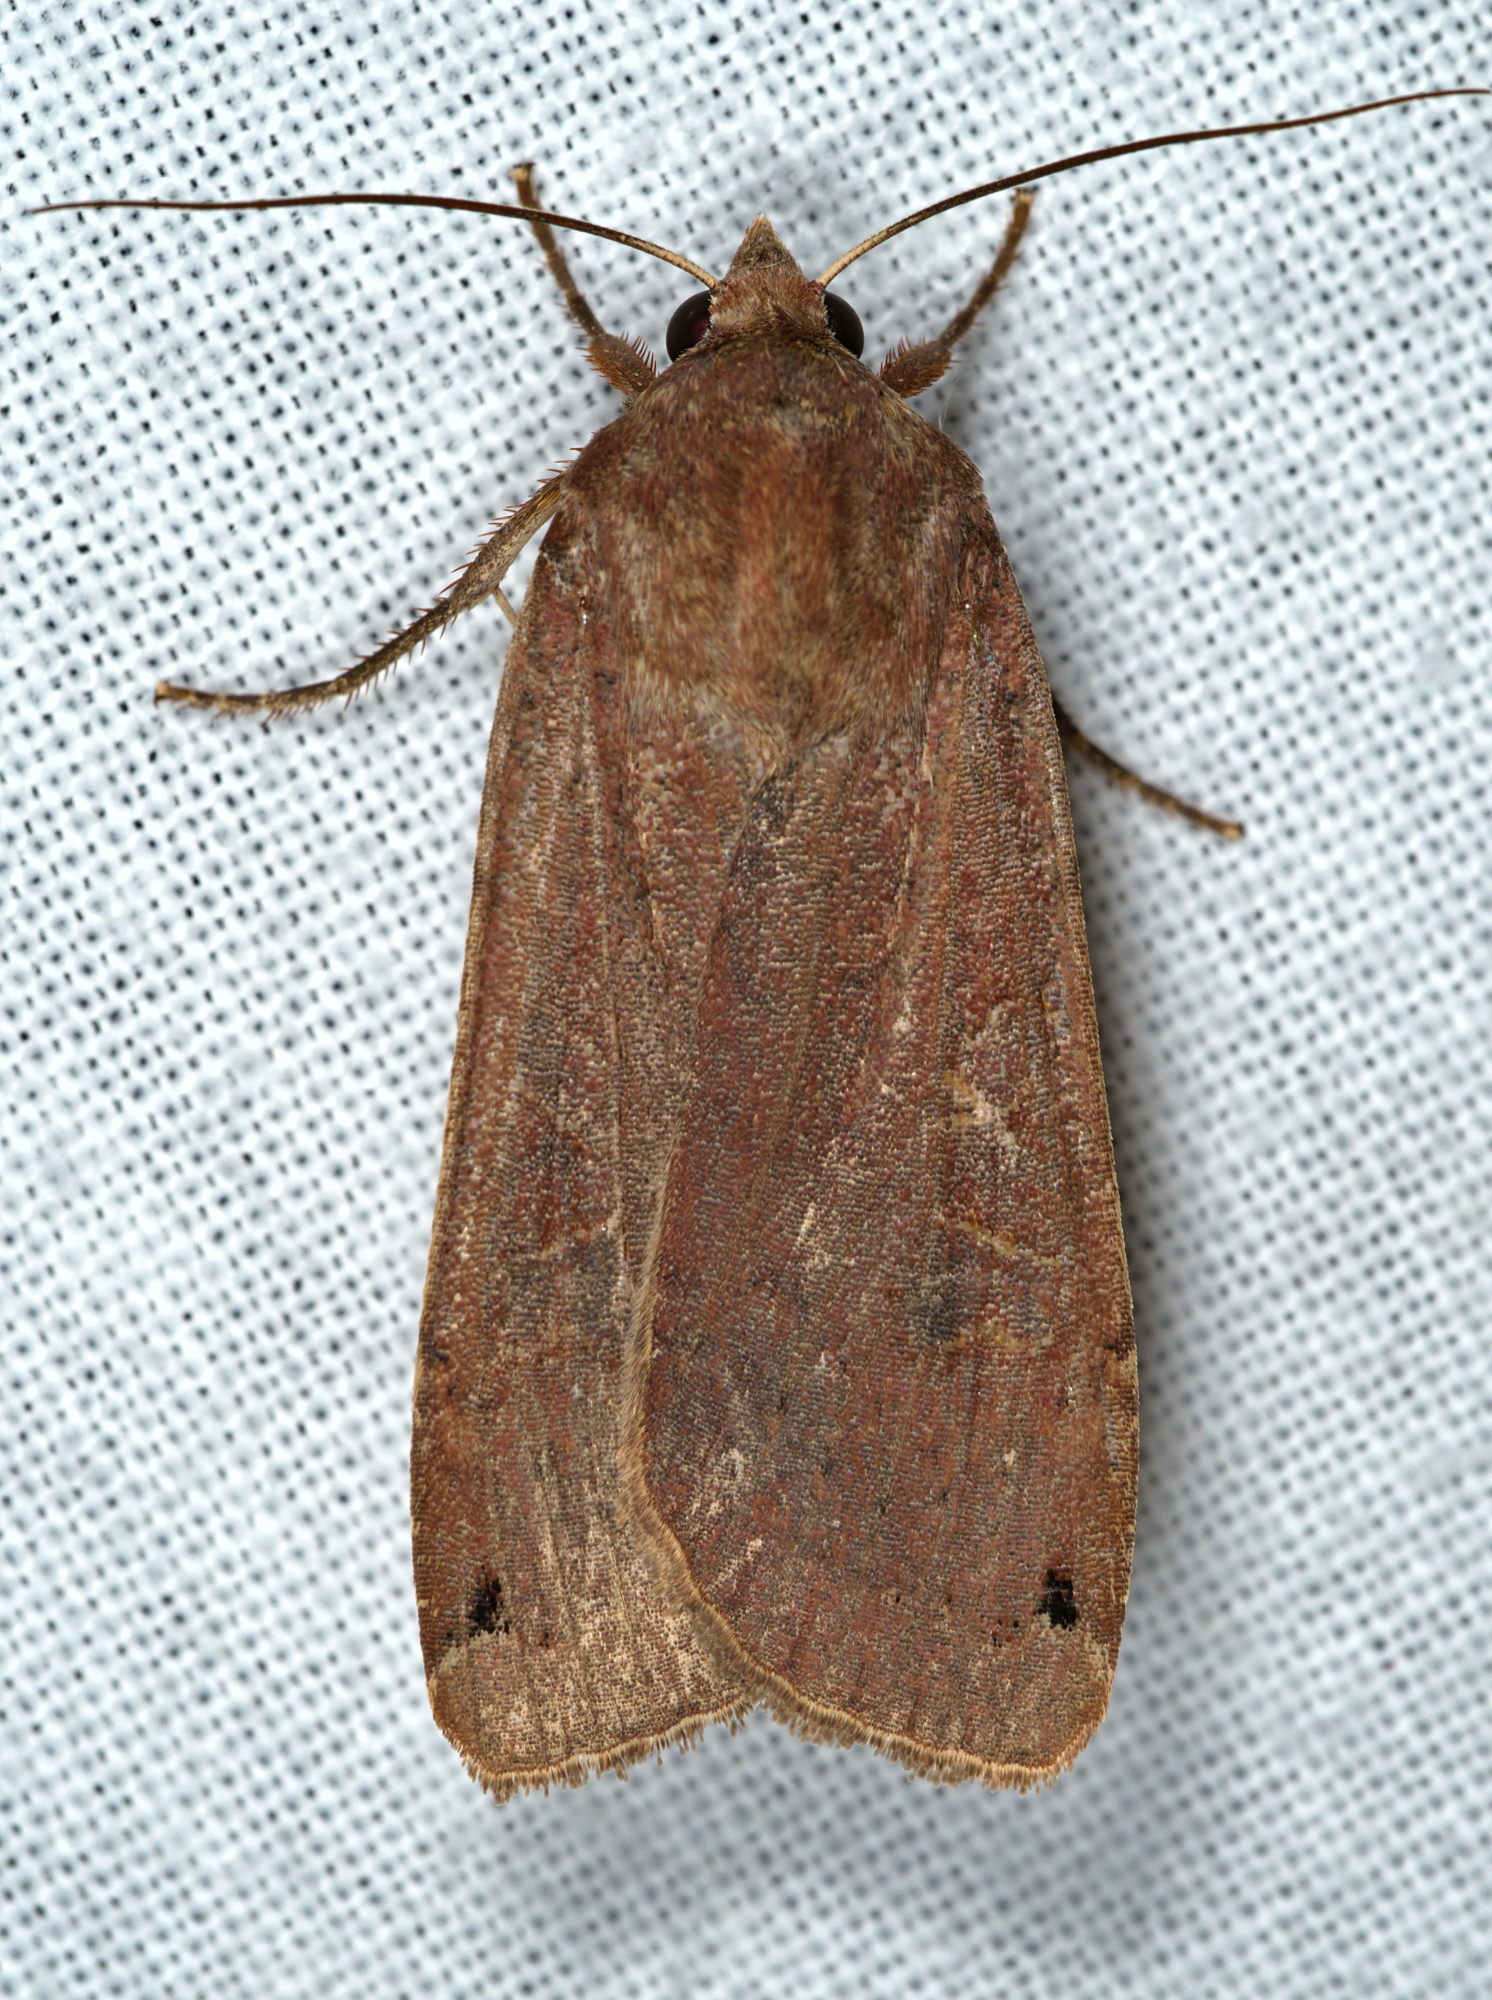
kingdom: Animalia
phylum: Arthropoda
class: Insecta
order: Lepidoptera
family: Noctuidae
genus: Noctua
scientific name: Noctua pronuba
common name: Large yellow underwing
